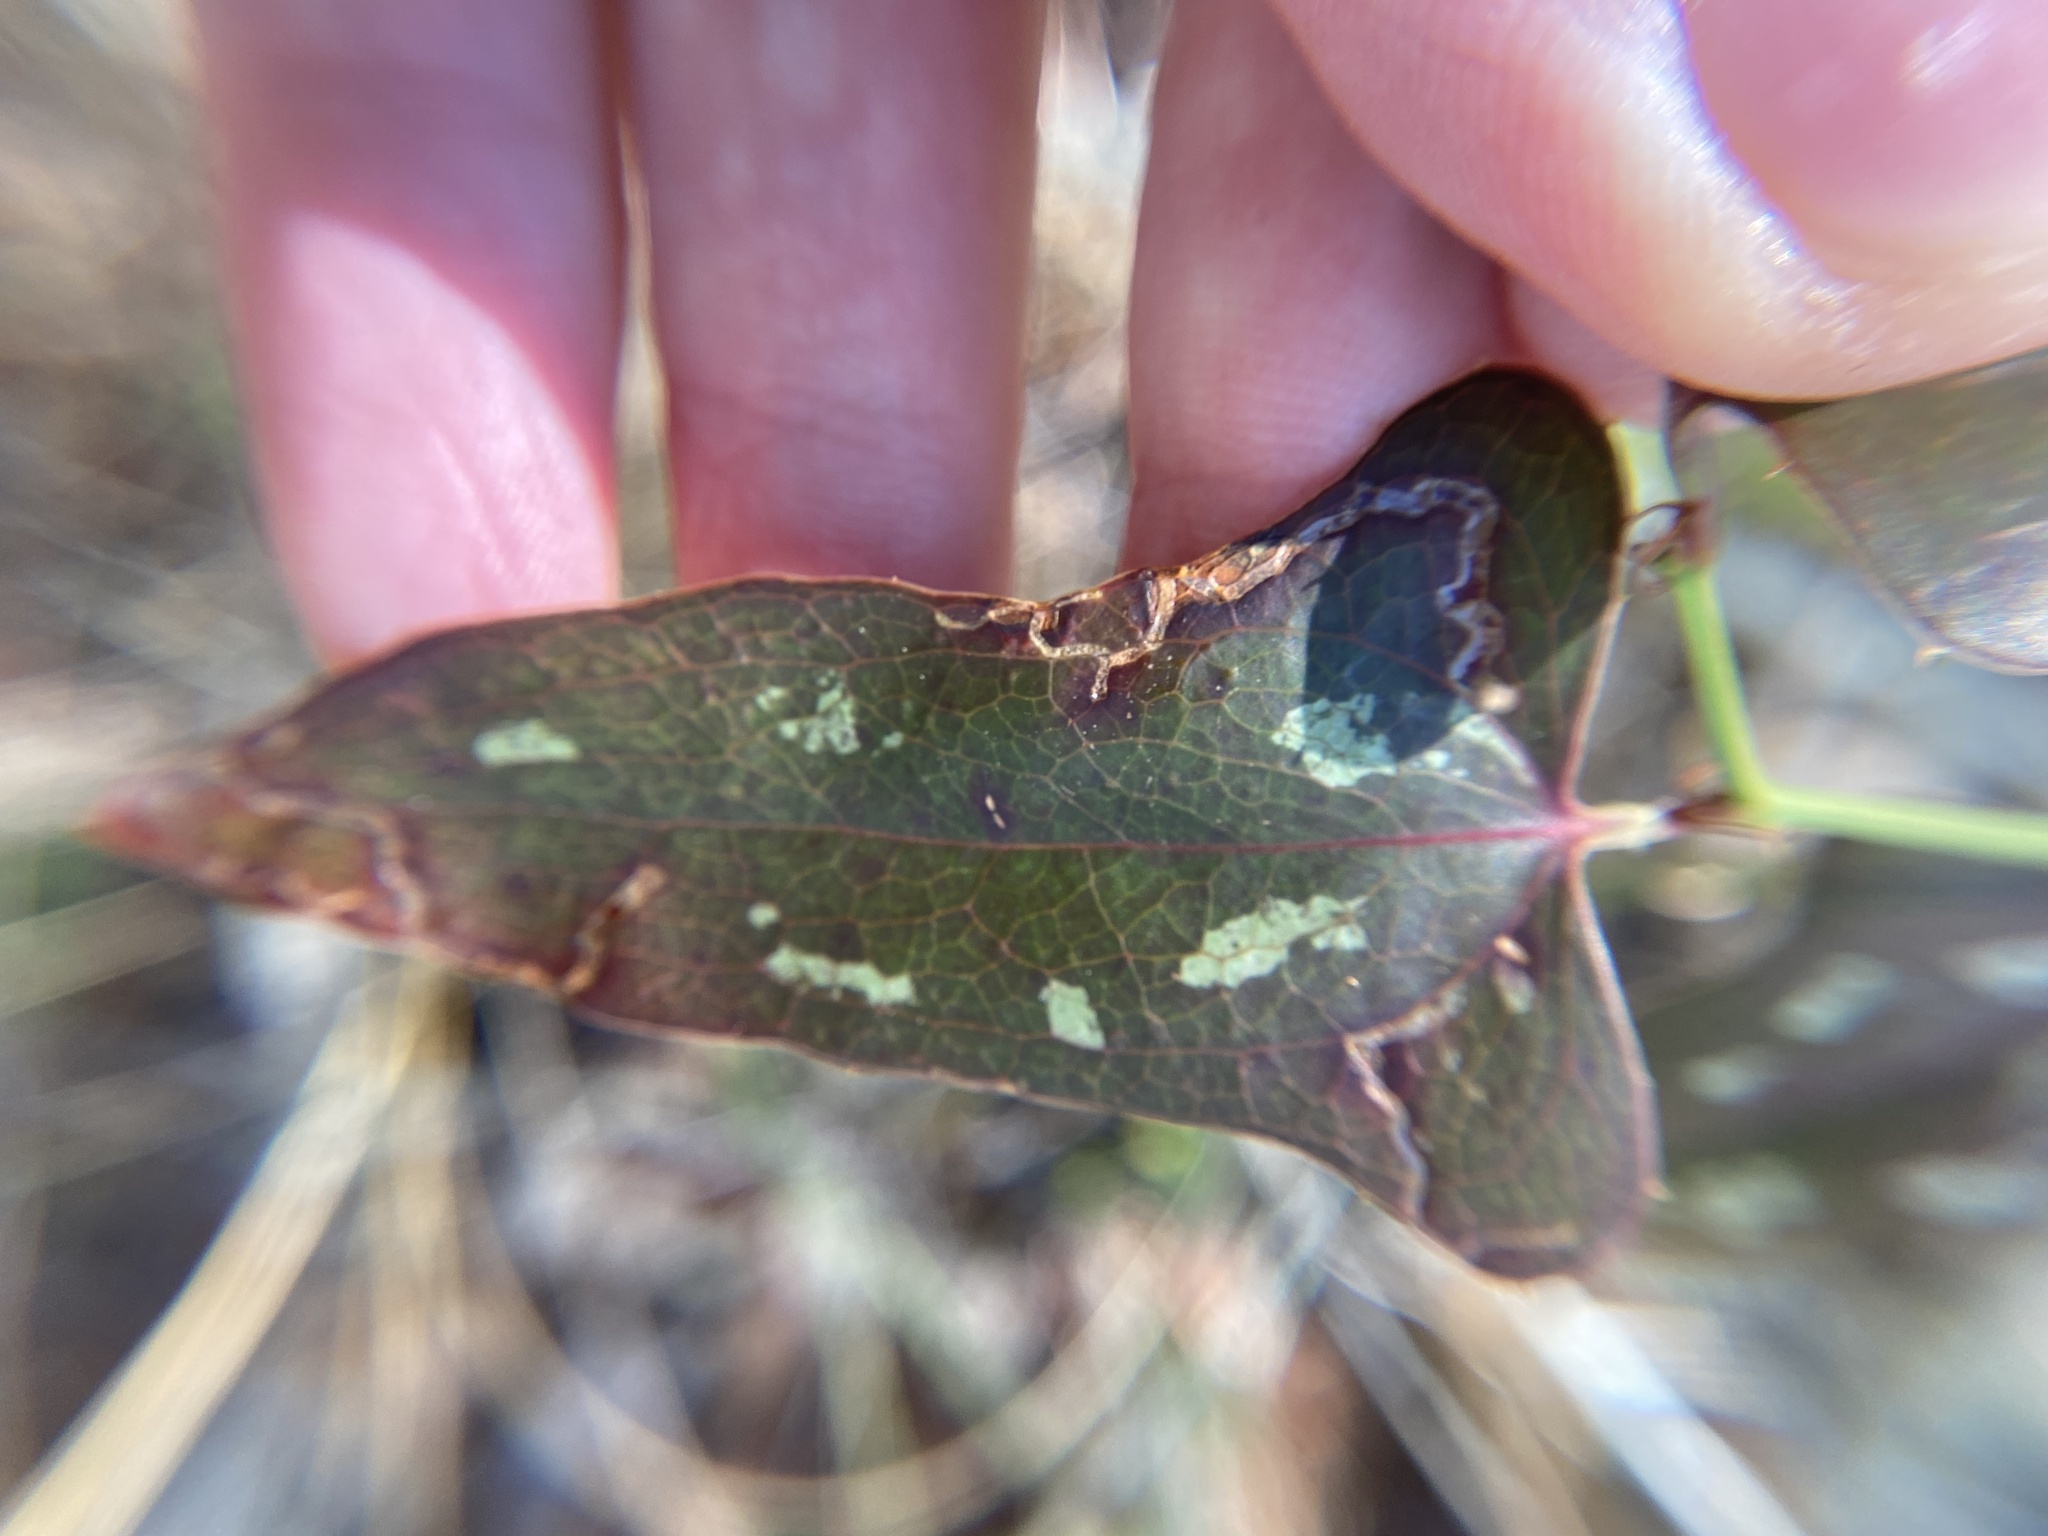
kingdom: Plantae
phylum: Tracheophyta
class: Liliopsida
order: Liliales
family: Smilacaceae
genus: Smilax
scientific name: Smilax bona-nox
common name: Catbrier
